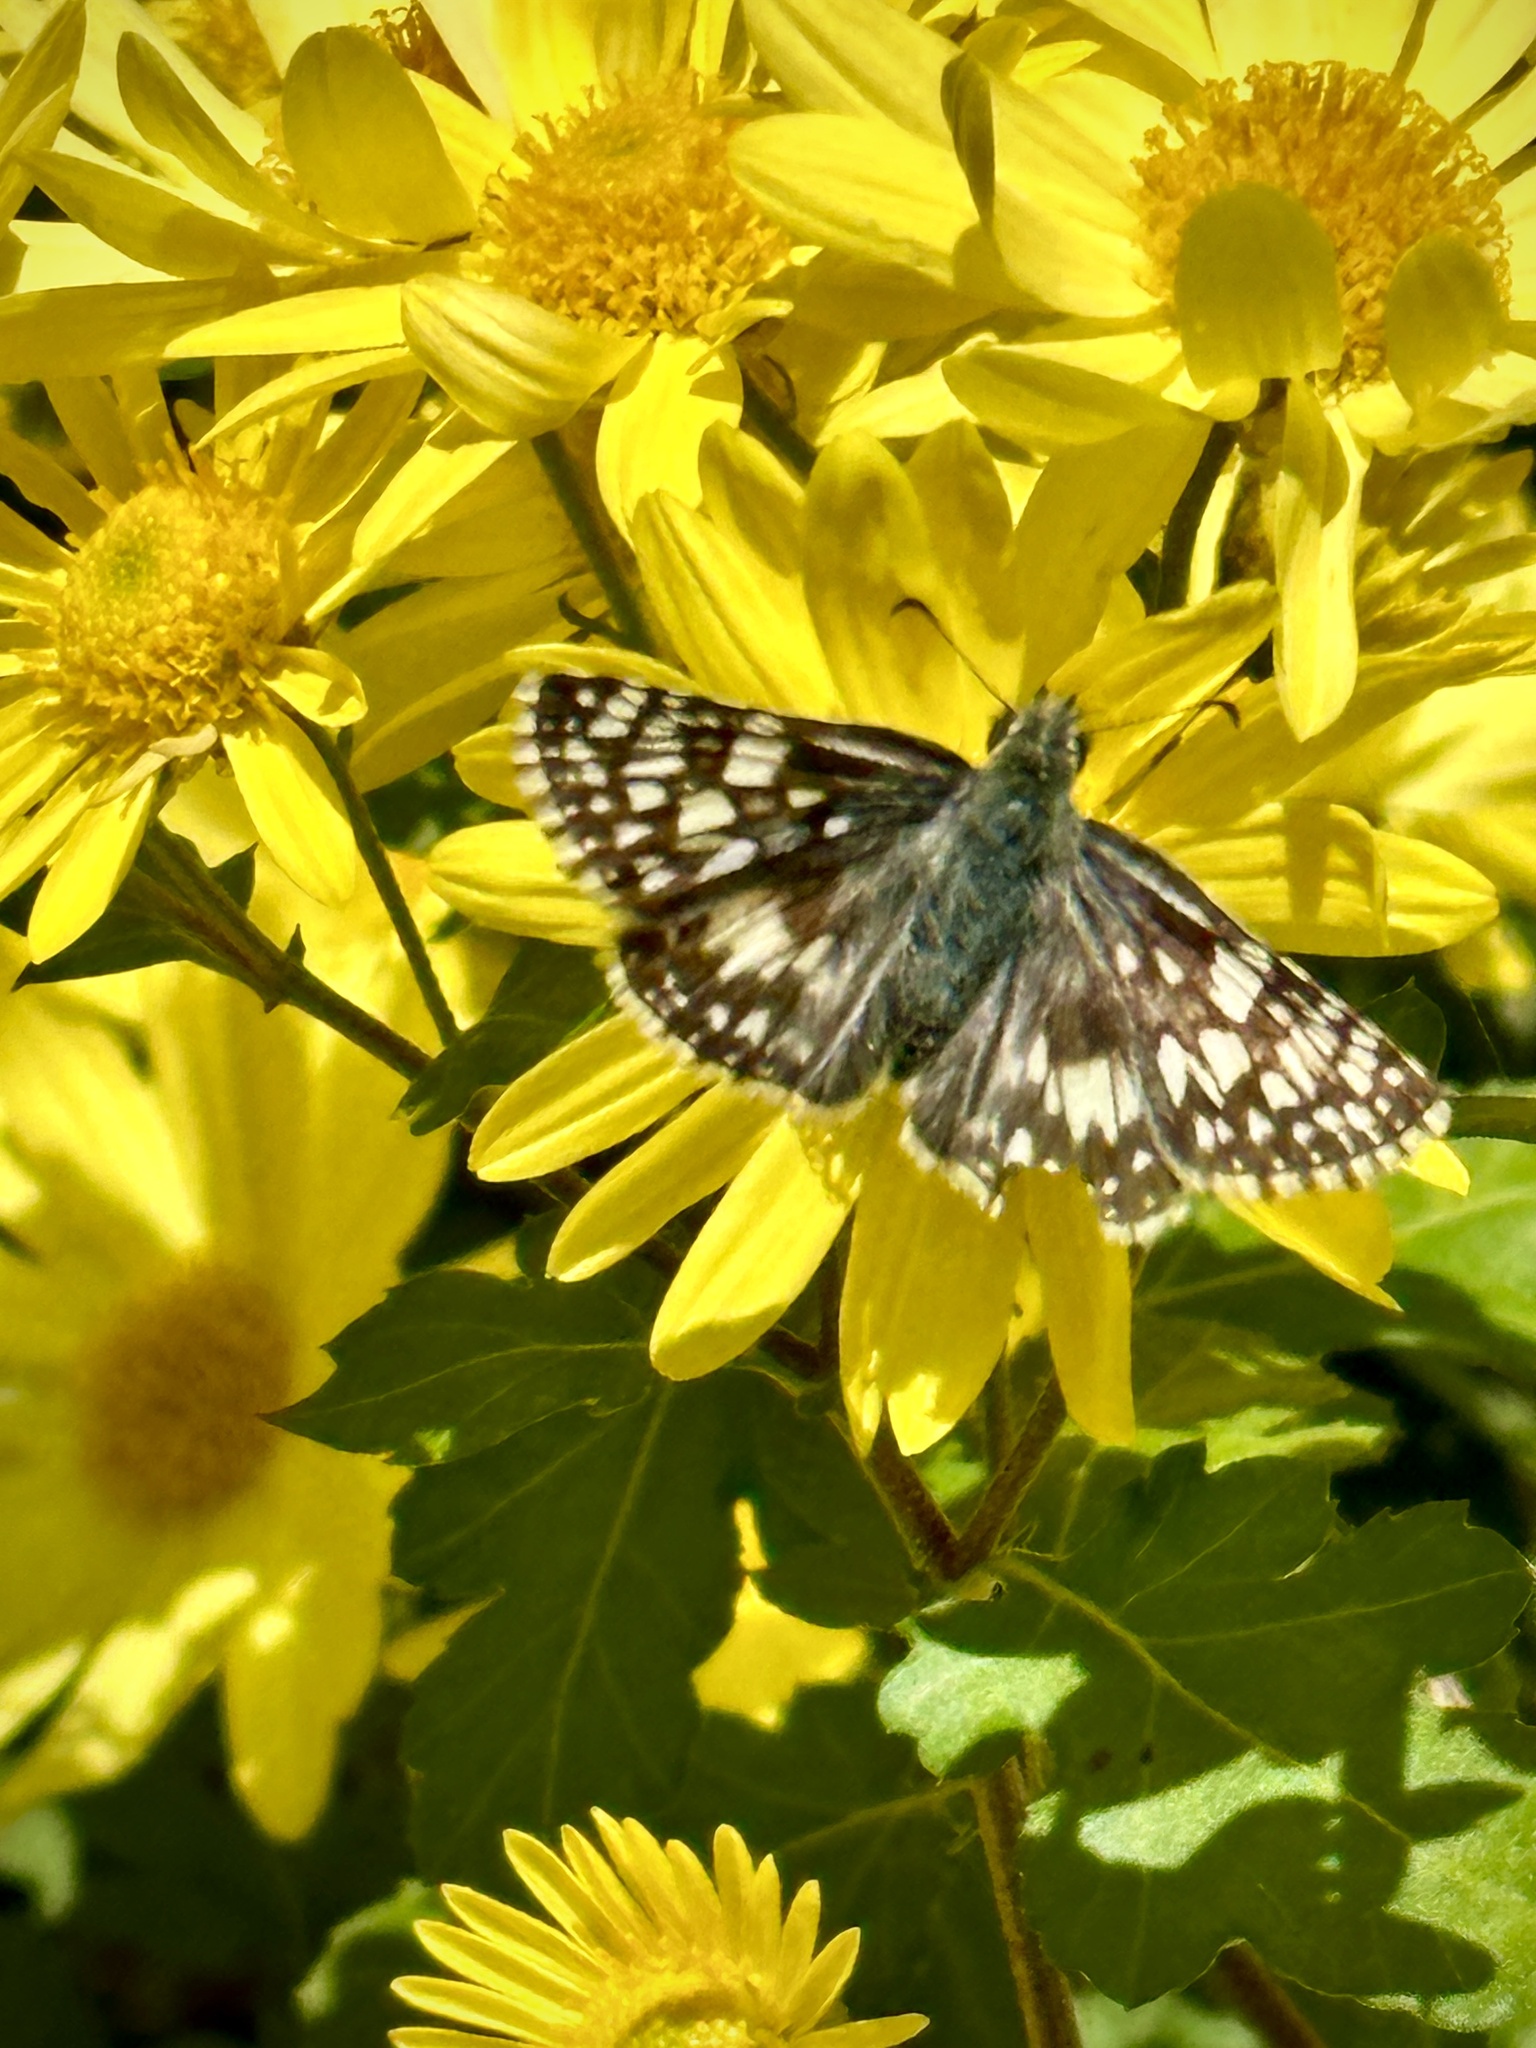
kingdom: Animalia
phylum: Arthropoda
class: Insecta
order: Lepidoptera
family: Hesperiidae
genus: Burnsius
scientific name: Burnsius communis
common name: Common checkered-skipper
